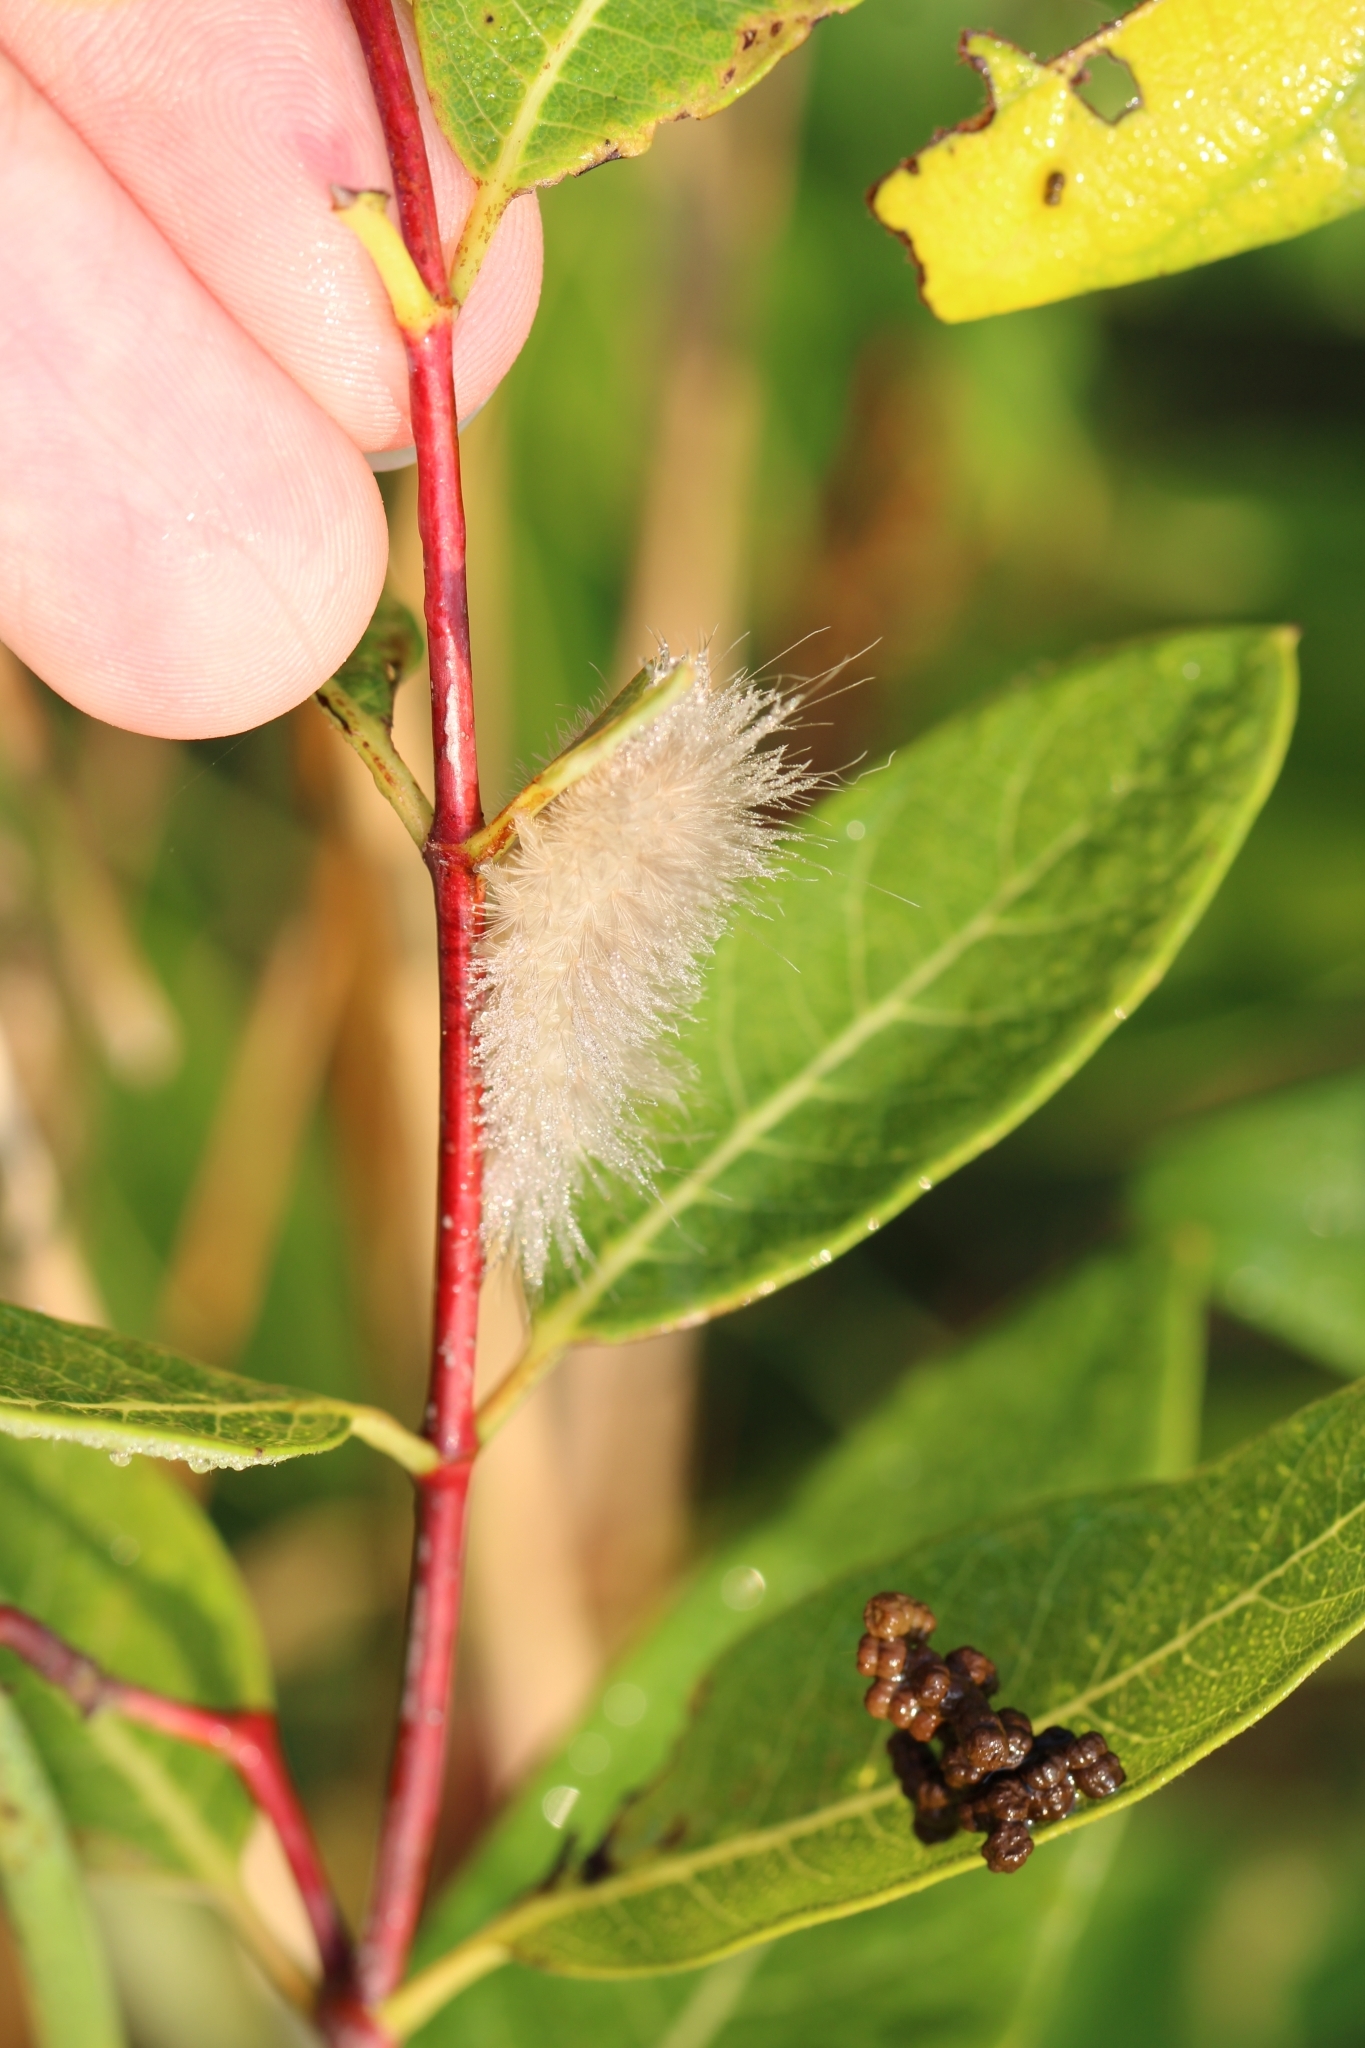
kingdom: Animalia
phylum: Arthropoda
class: Insecta
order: Lepidoptera
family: Erebidae
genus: Cycnia
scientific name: Cycnia tenera
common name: Delicate cycnia moth
